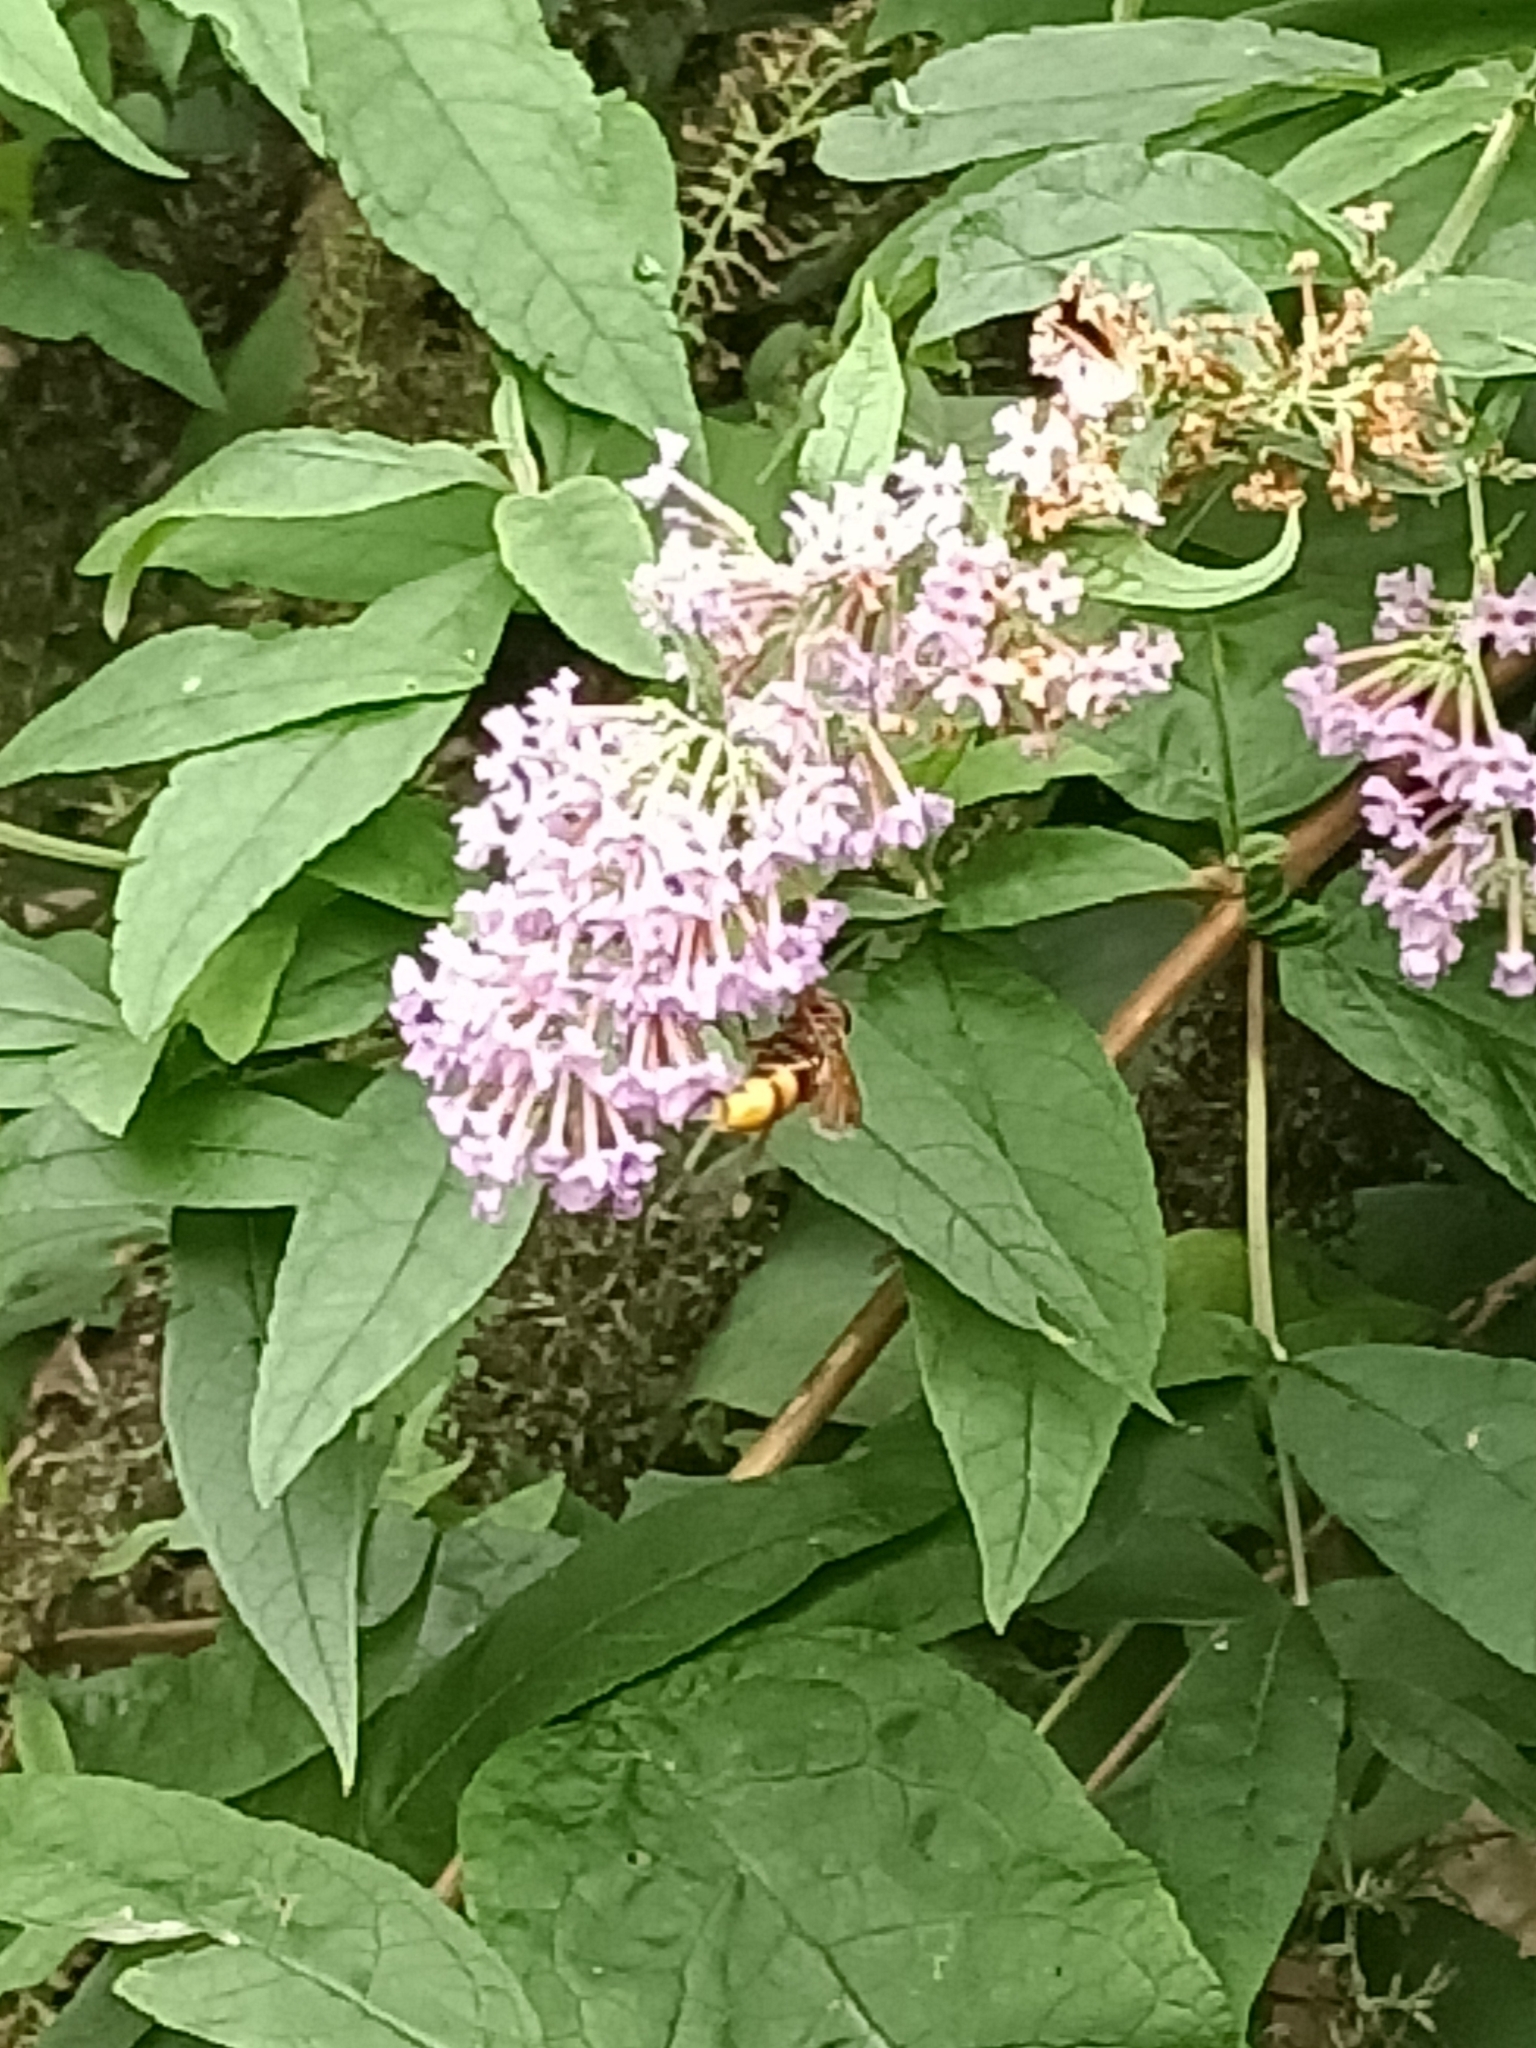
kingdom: Animalia
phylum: Arthropoda
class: Insecta
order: Diptera
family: Syrphidae
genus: Volucella
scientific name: Volucella zonaria
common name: Hornet hoverfly
